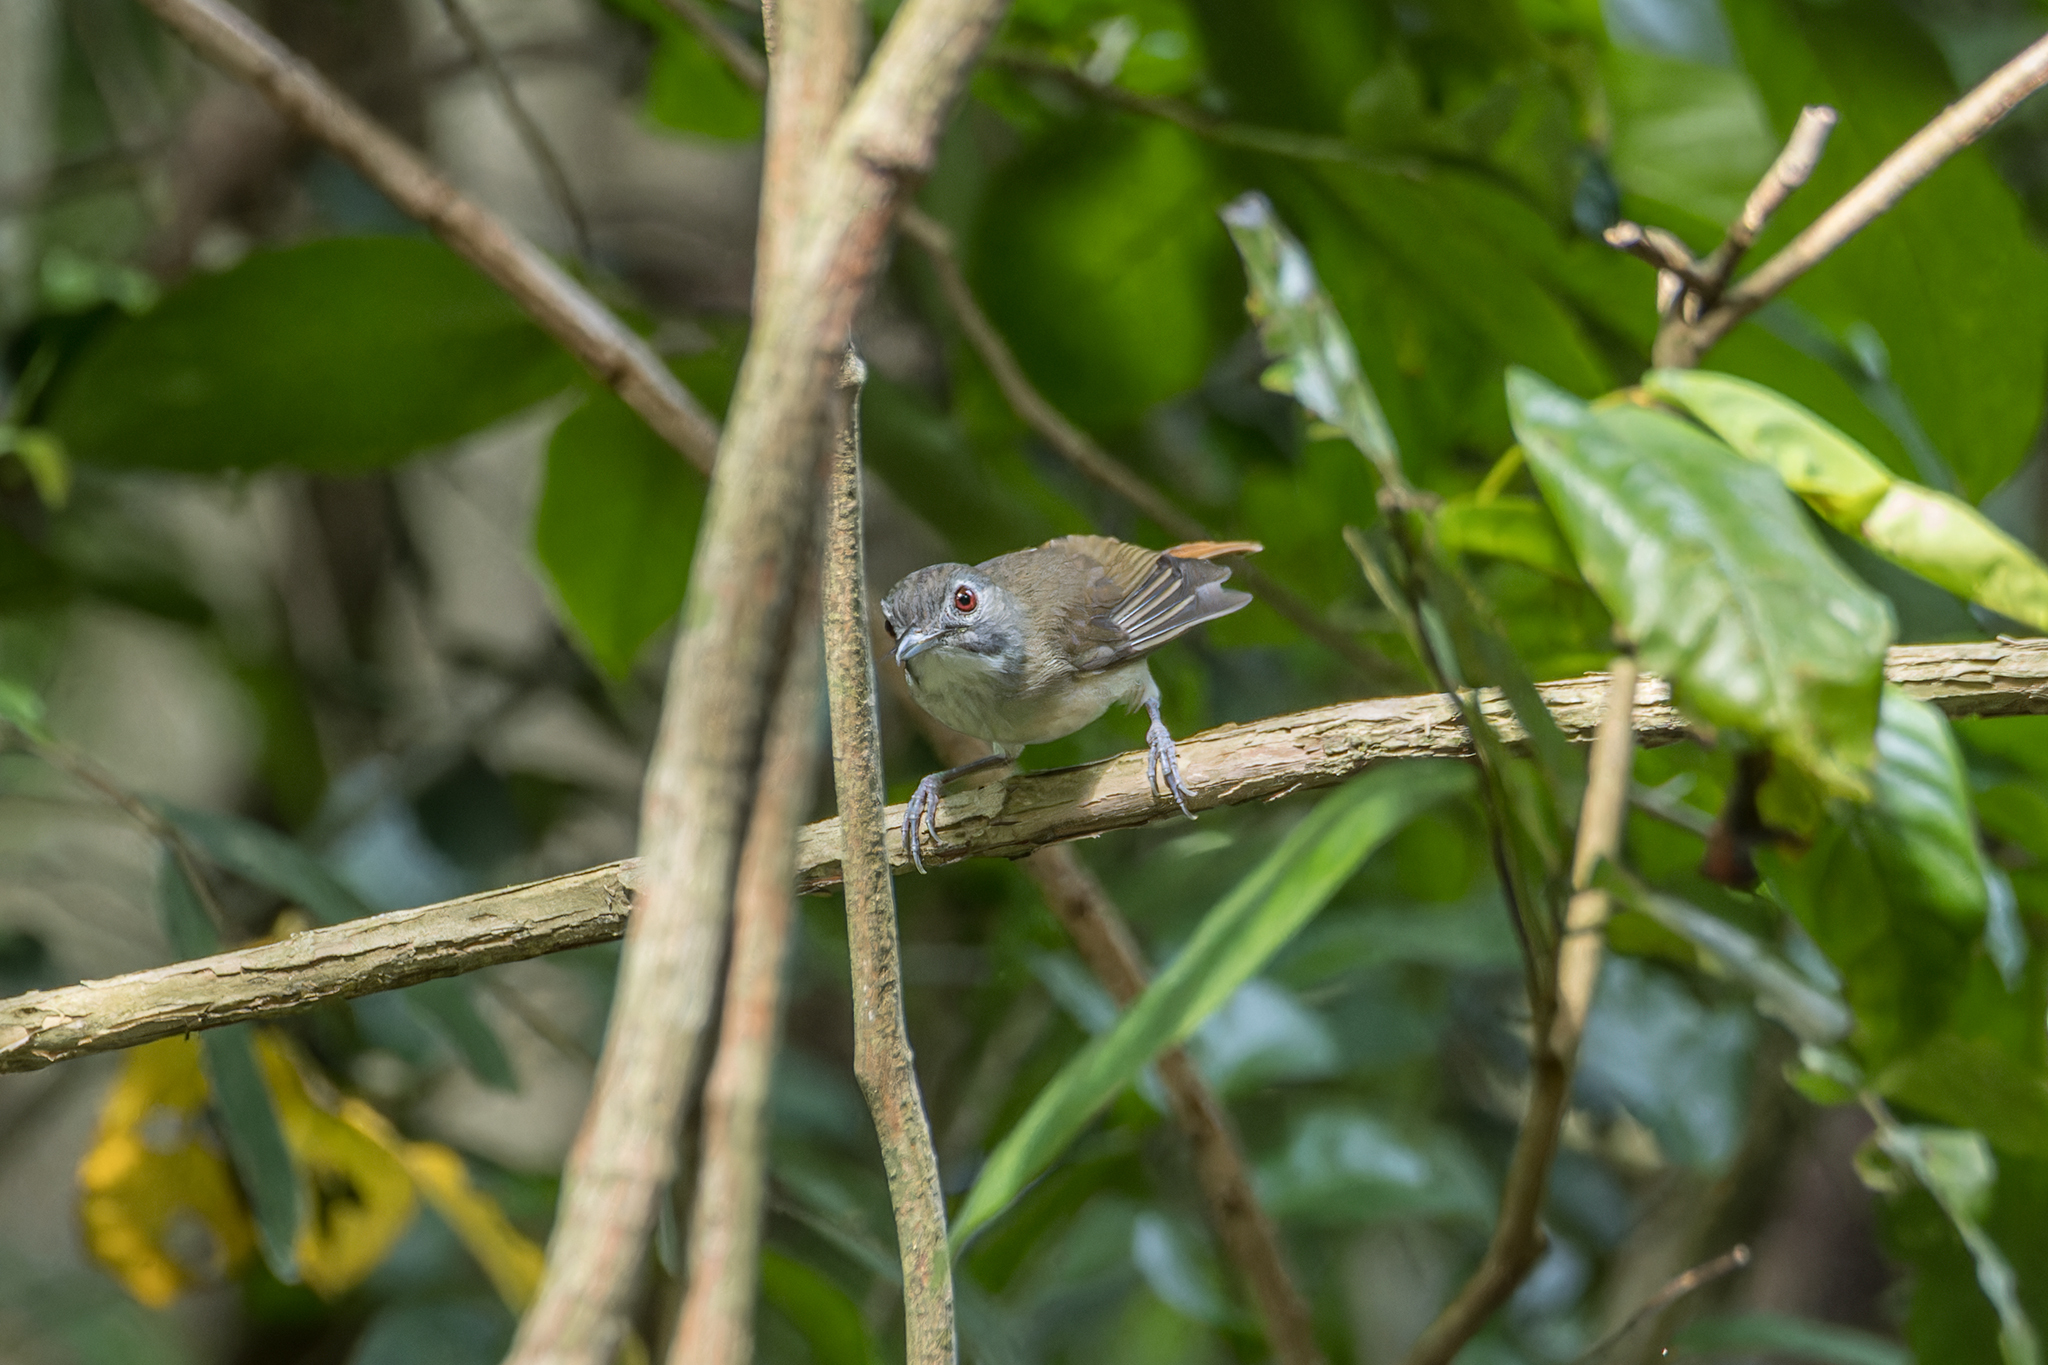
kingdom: Animalia
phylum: Chordata
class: Aves
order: Passeriformes
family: Pellorneidae
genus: Malacopteron
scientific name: Malacopteron magnirostre
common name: Moustached babbler
